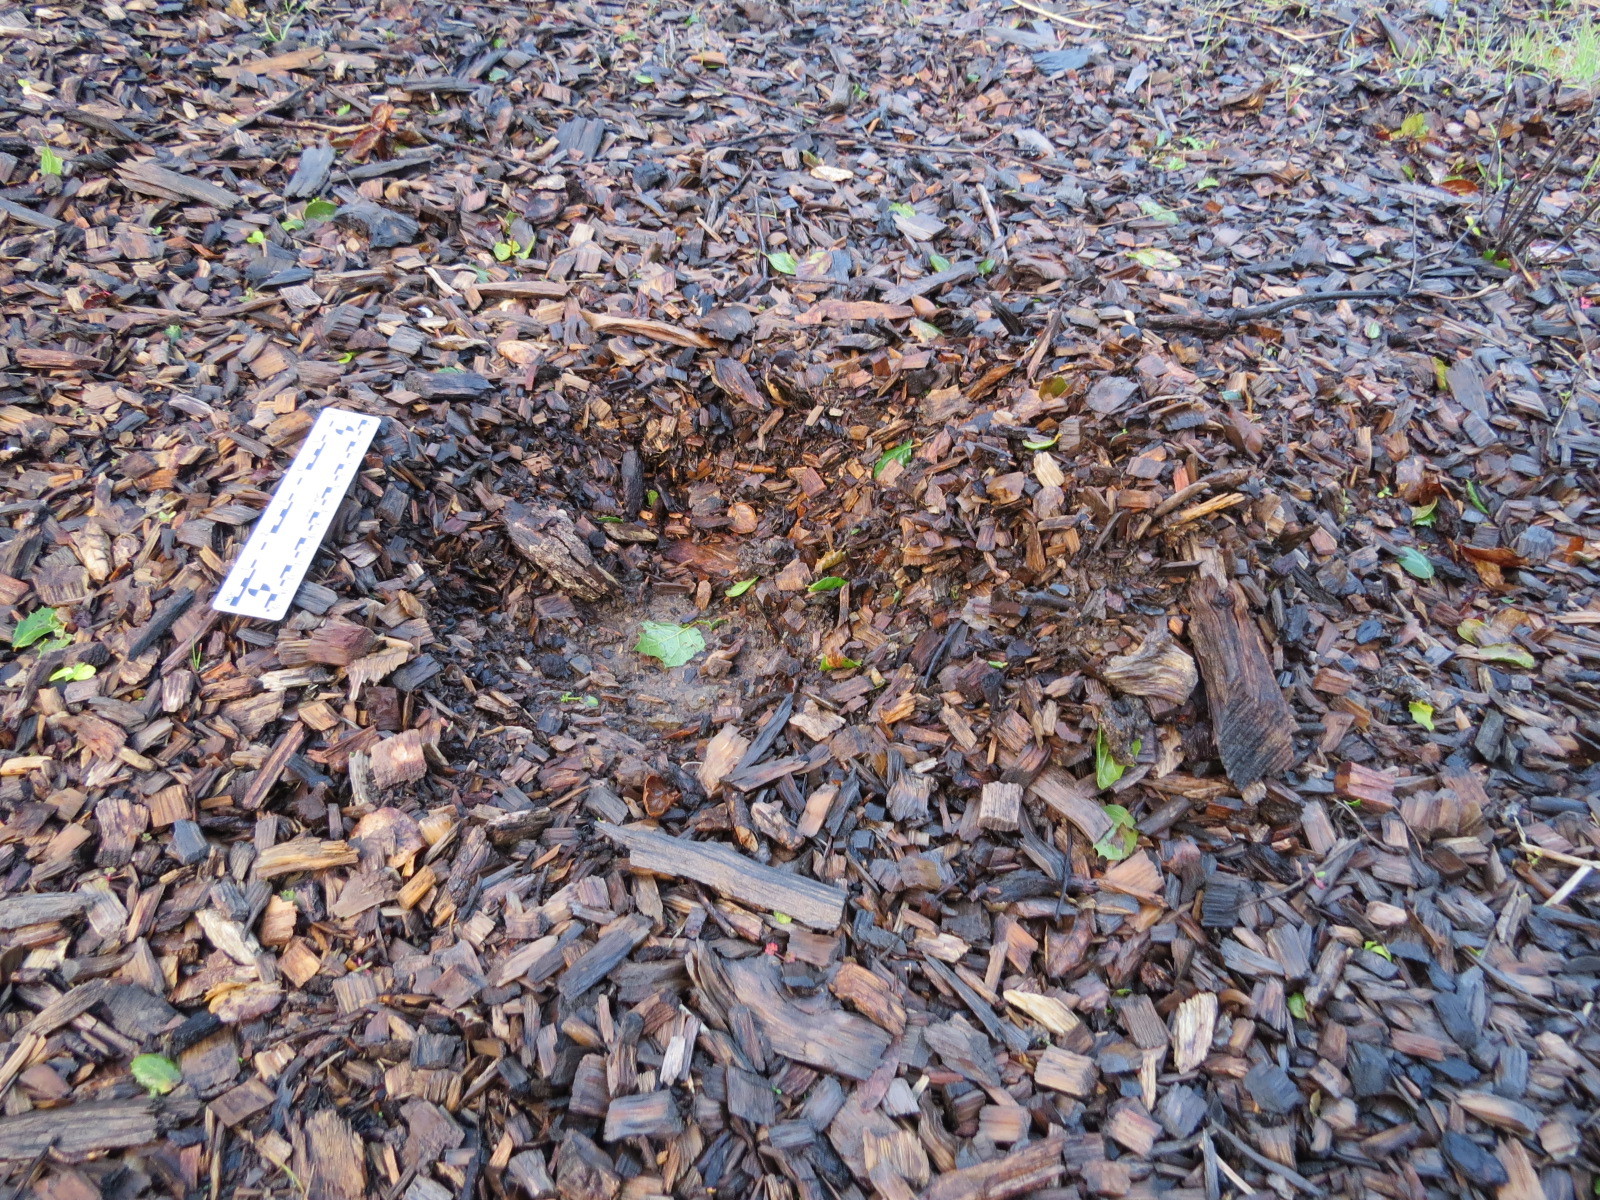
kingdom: Animalia
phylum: Chordata
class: Mammalia
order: Carnivora
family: Felidae
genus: Puma
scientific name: Puma concolor
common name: Puma
